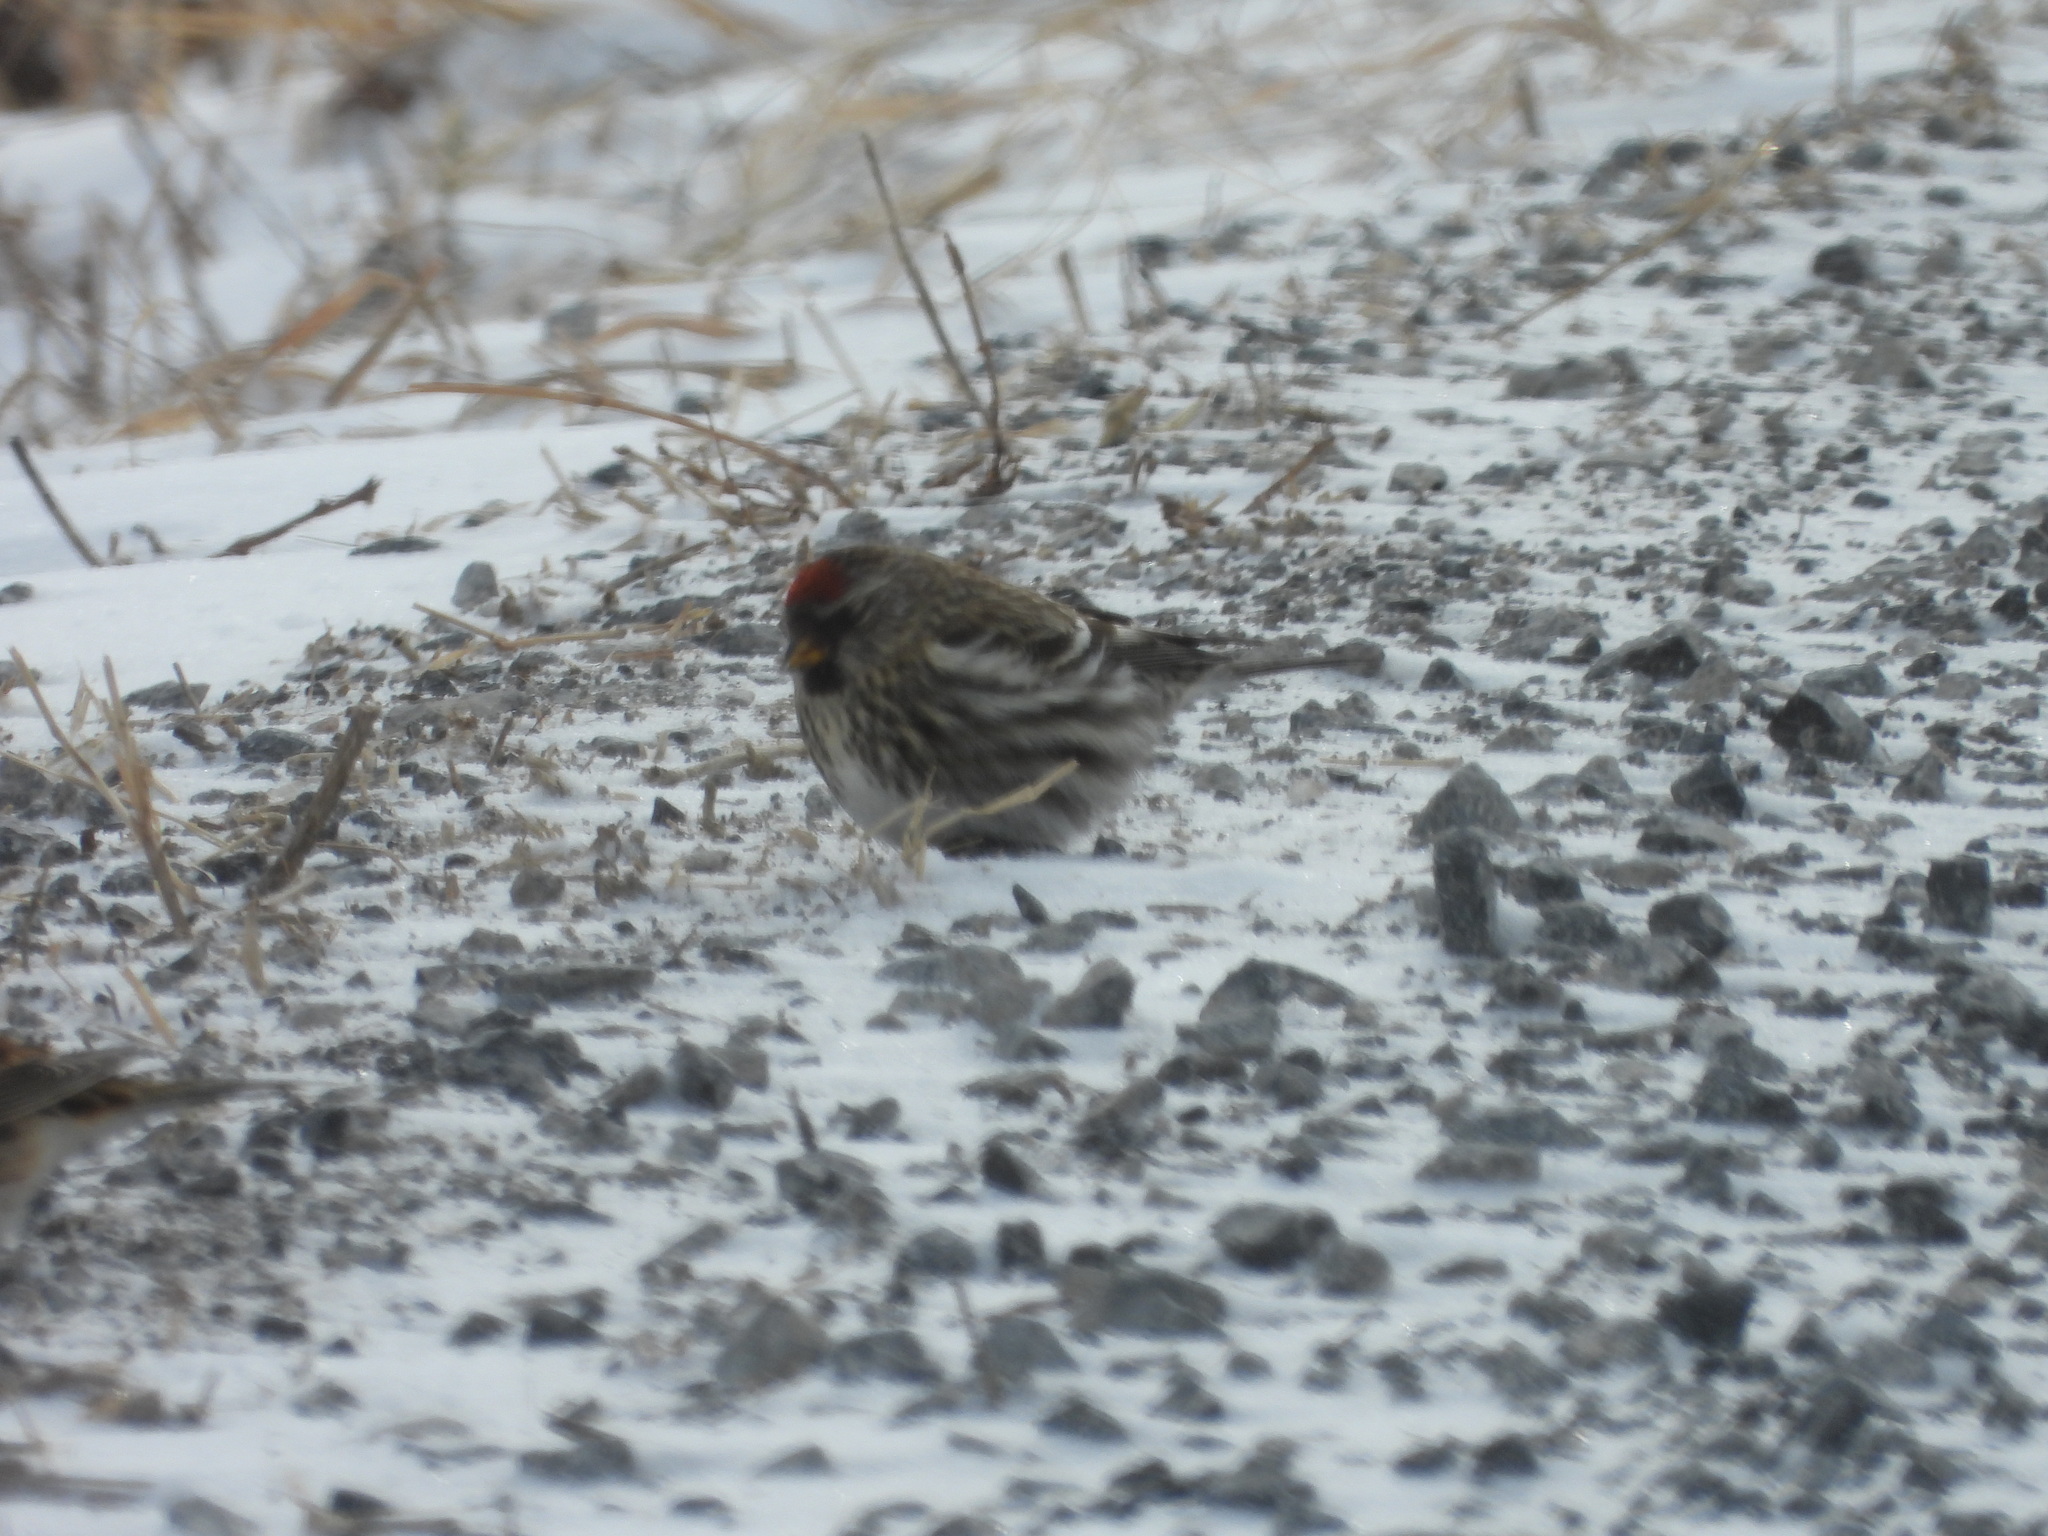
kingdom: Animalia
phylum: Chordata
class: Aves
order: Passeriformes
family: Fringillidae
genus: Acanthis
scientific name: Acanthis flammea
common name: Common redpoll
